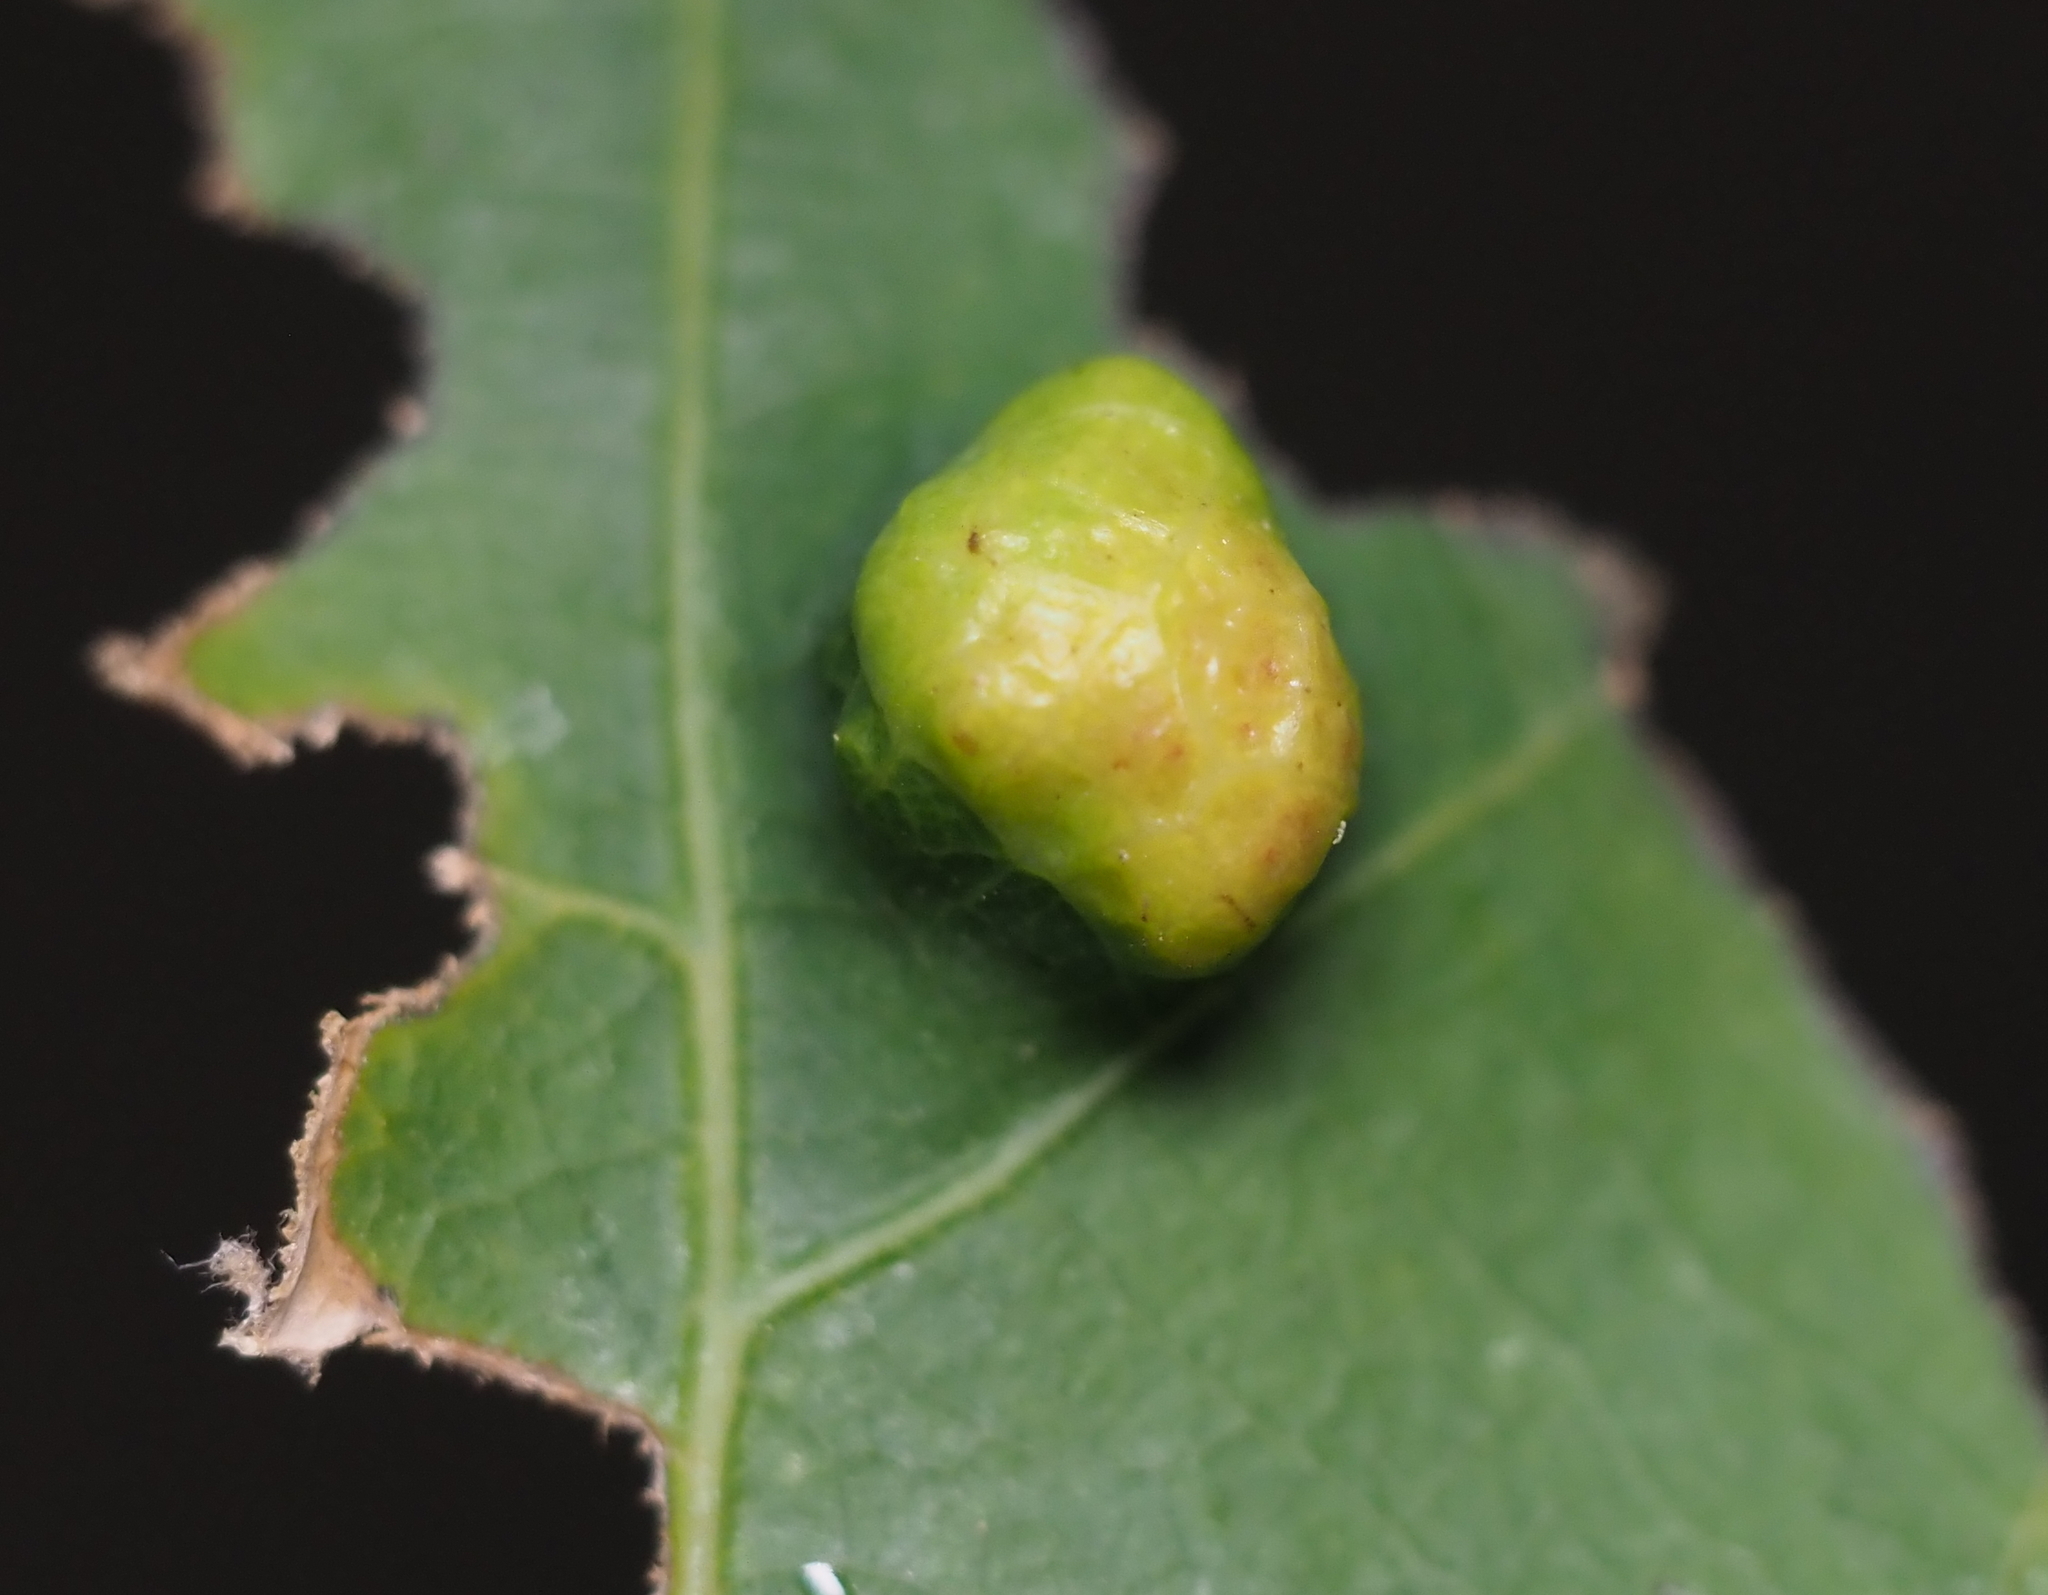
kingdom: Animalia
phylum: Arthropoda
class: Arachnida
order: Trombidiformes
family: Eriophyidae
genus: Aceria
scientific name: Aceria
